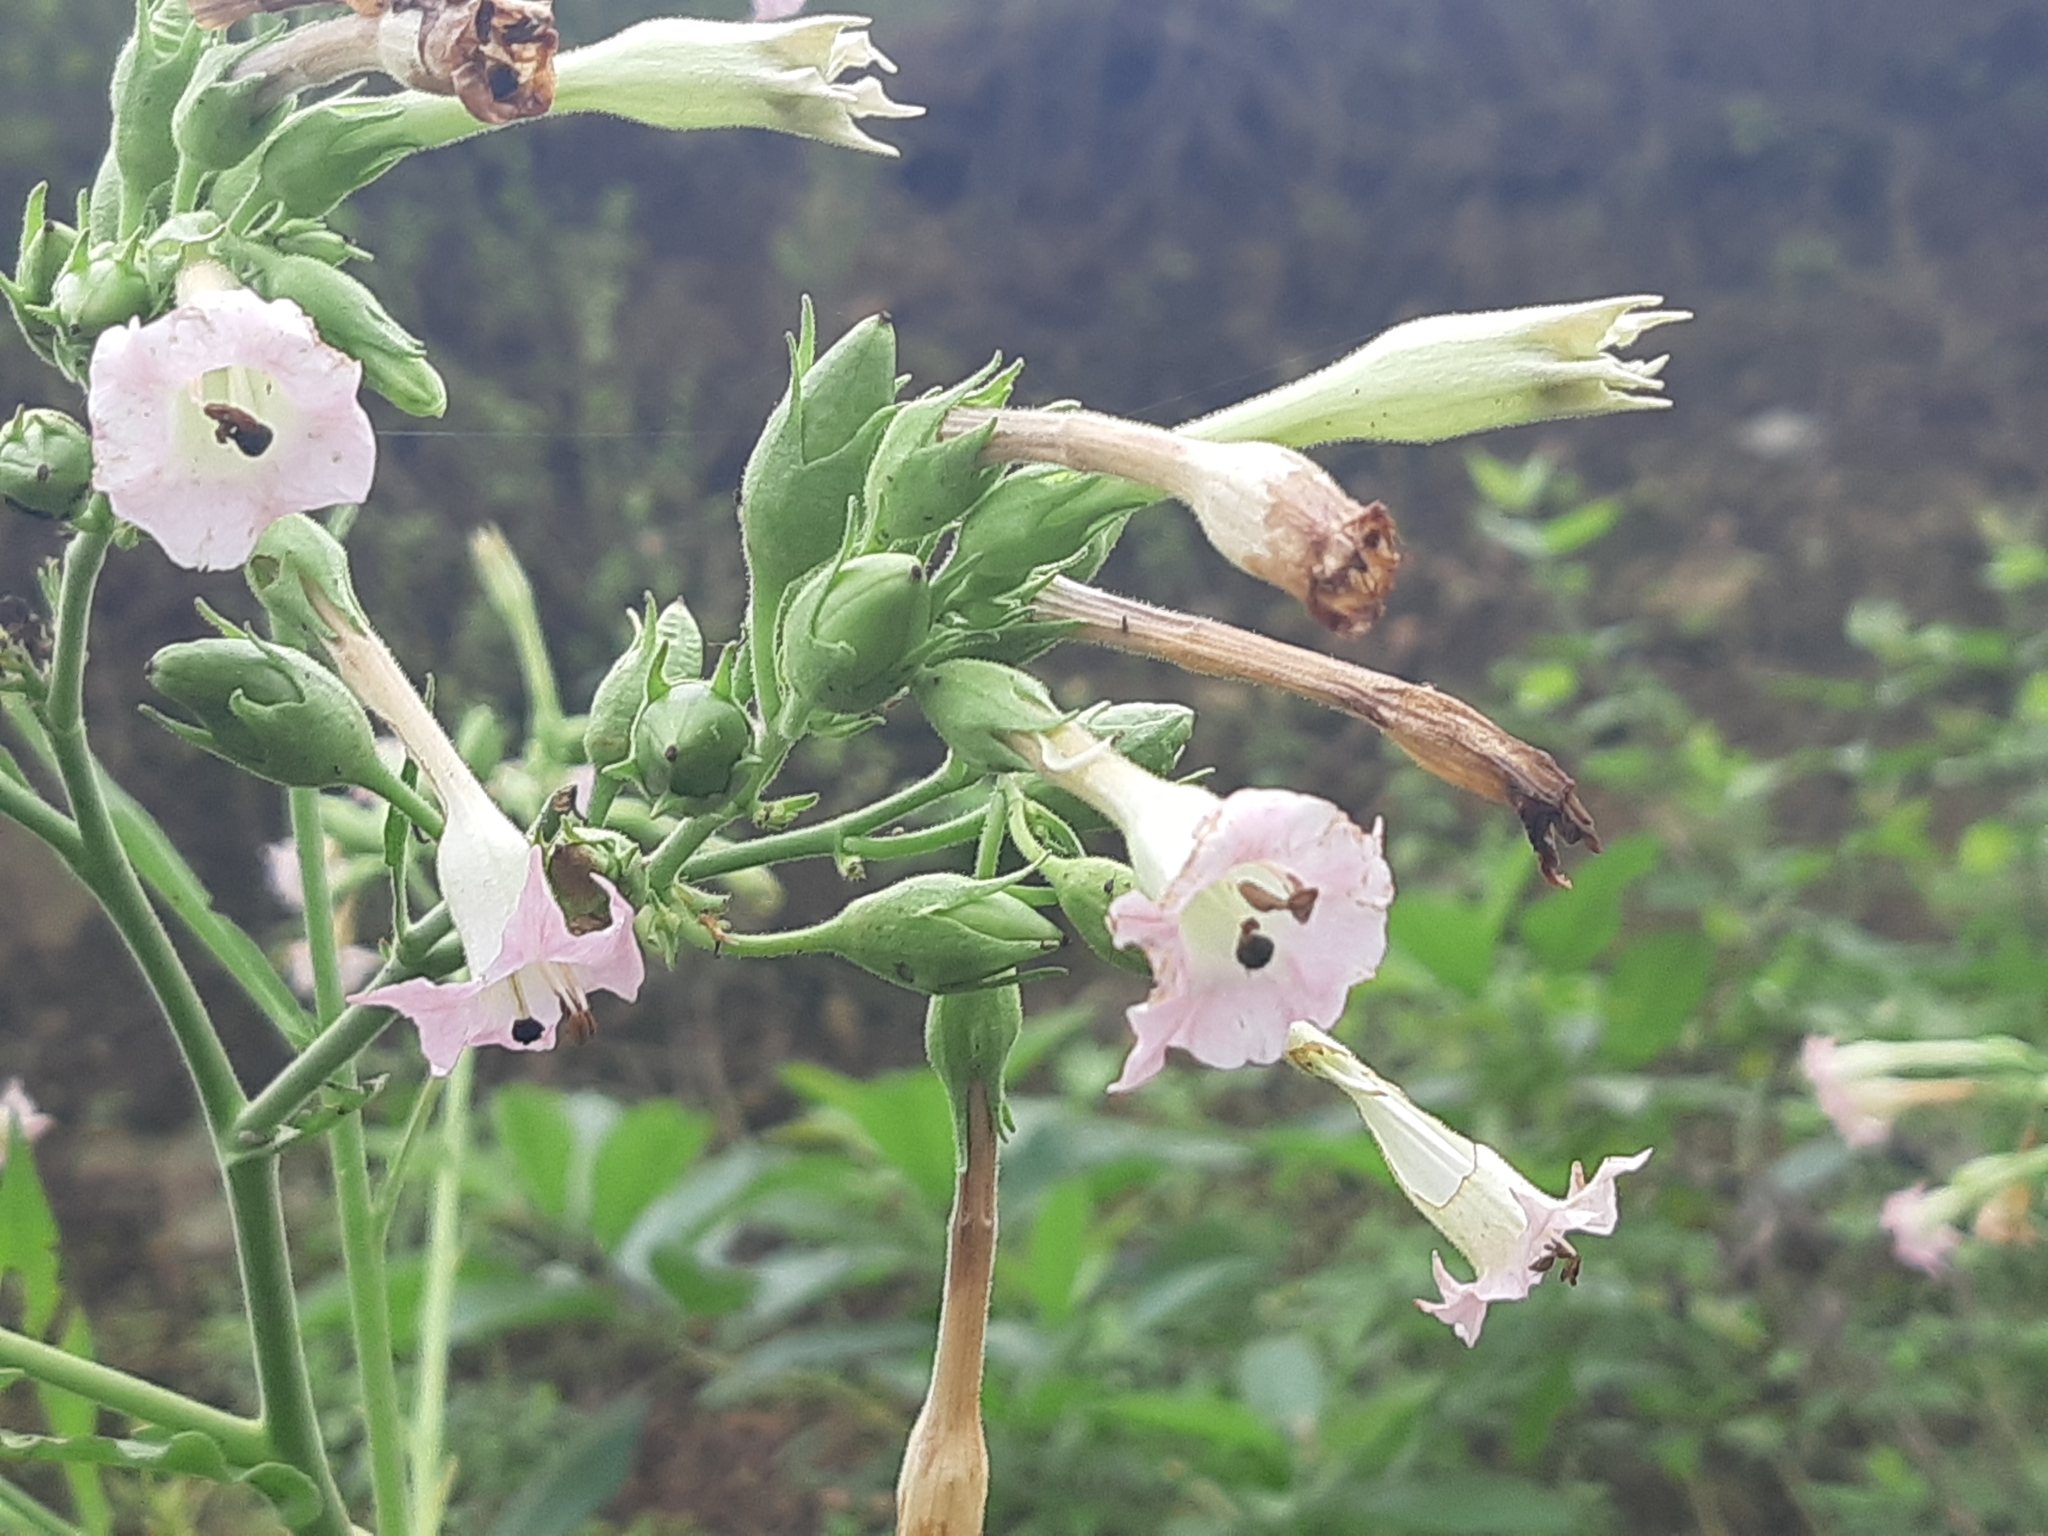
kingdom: Plantae
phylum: Tracheophyta
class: Magnoliopsida
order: Solanales
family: Solanaceae
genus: Nicotiana
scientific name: Nicotiana tabacum
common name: Tobacco
